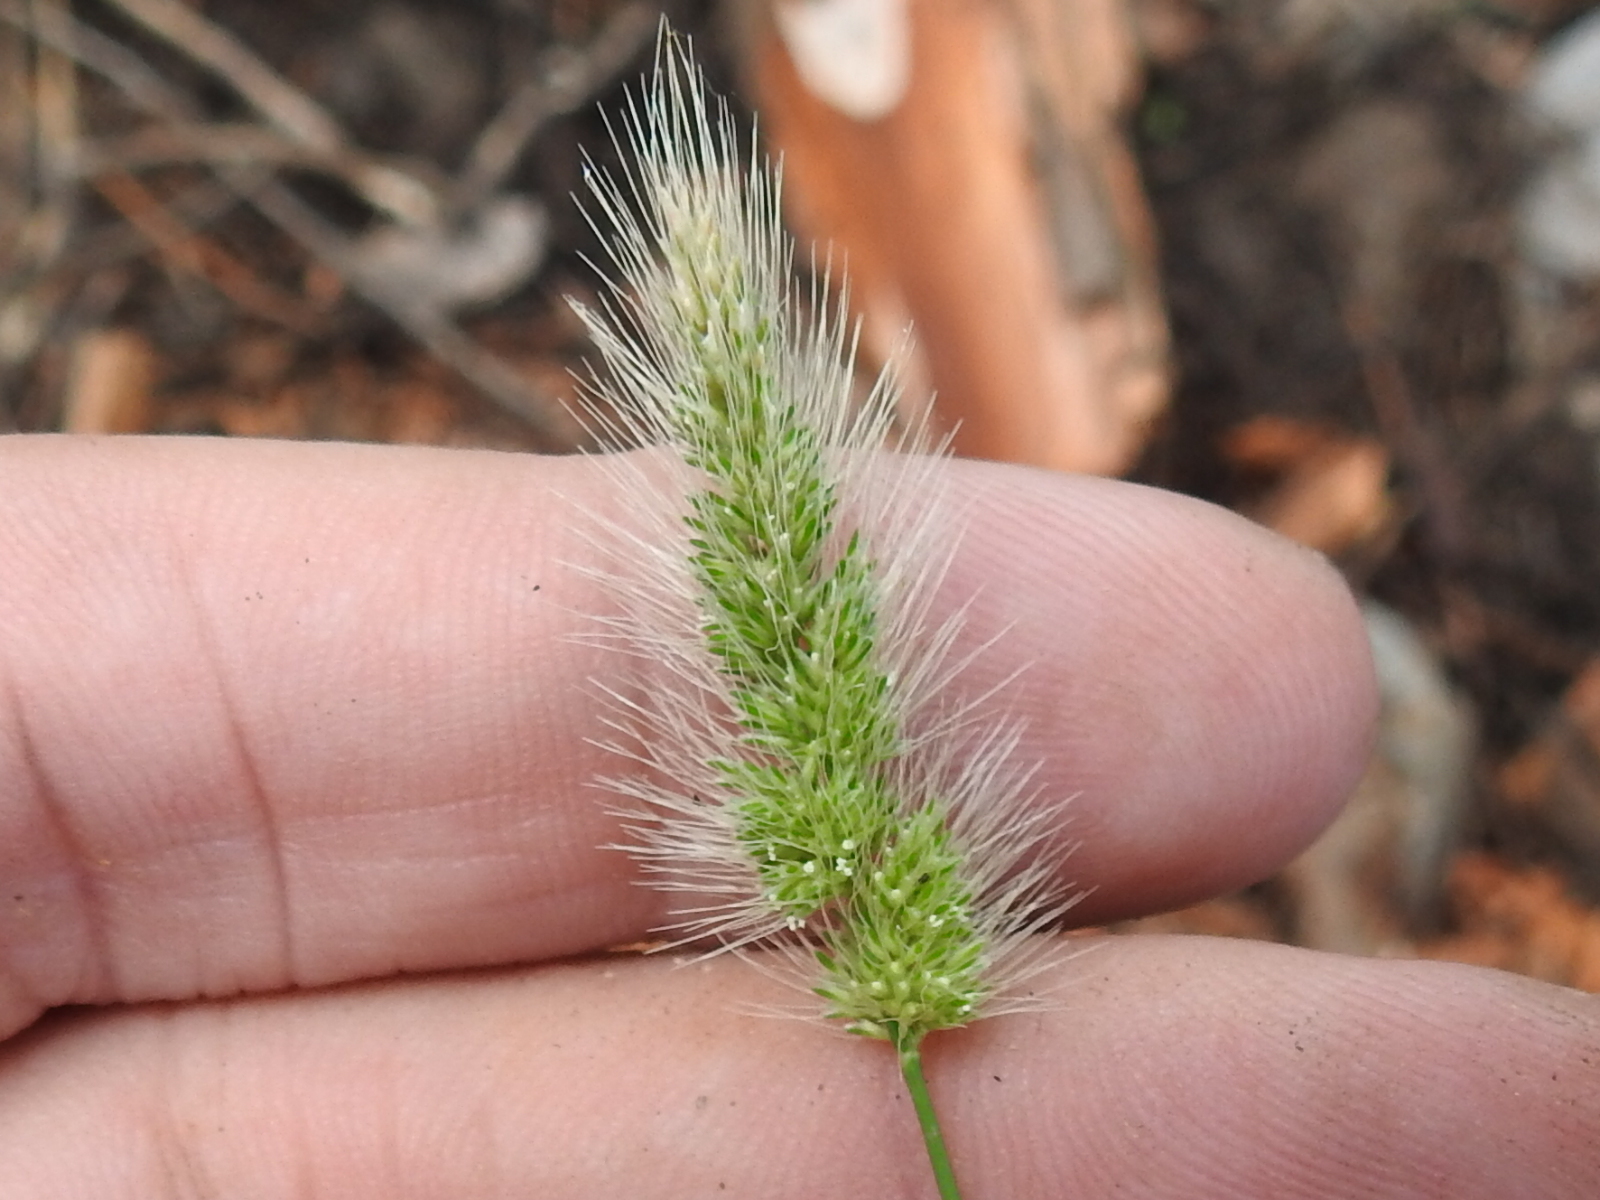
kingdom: Plantae
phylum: Tracheophyta
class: Liliopsida
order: Poales
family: Poaceae
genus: Polypogon
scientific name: Polypogon monspeliensis
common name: Annual rabbitsfoot grass
